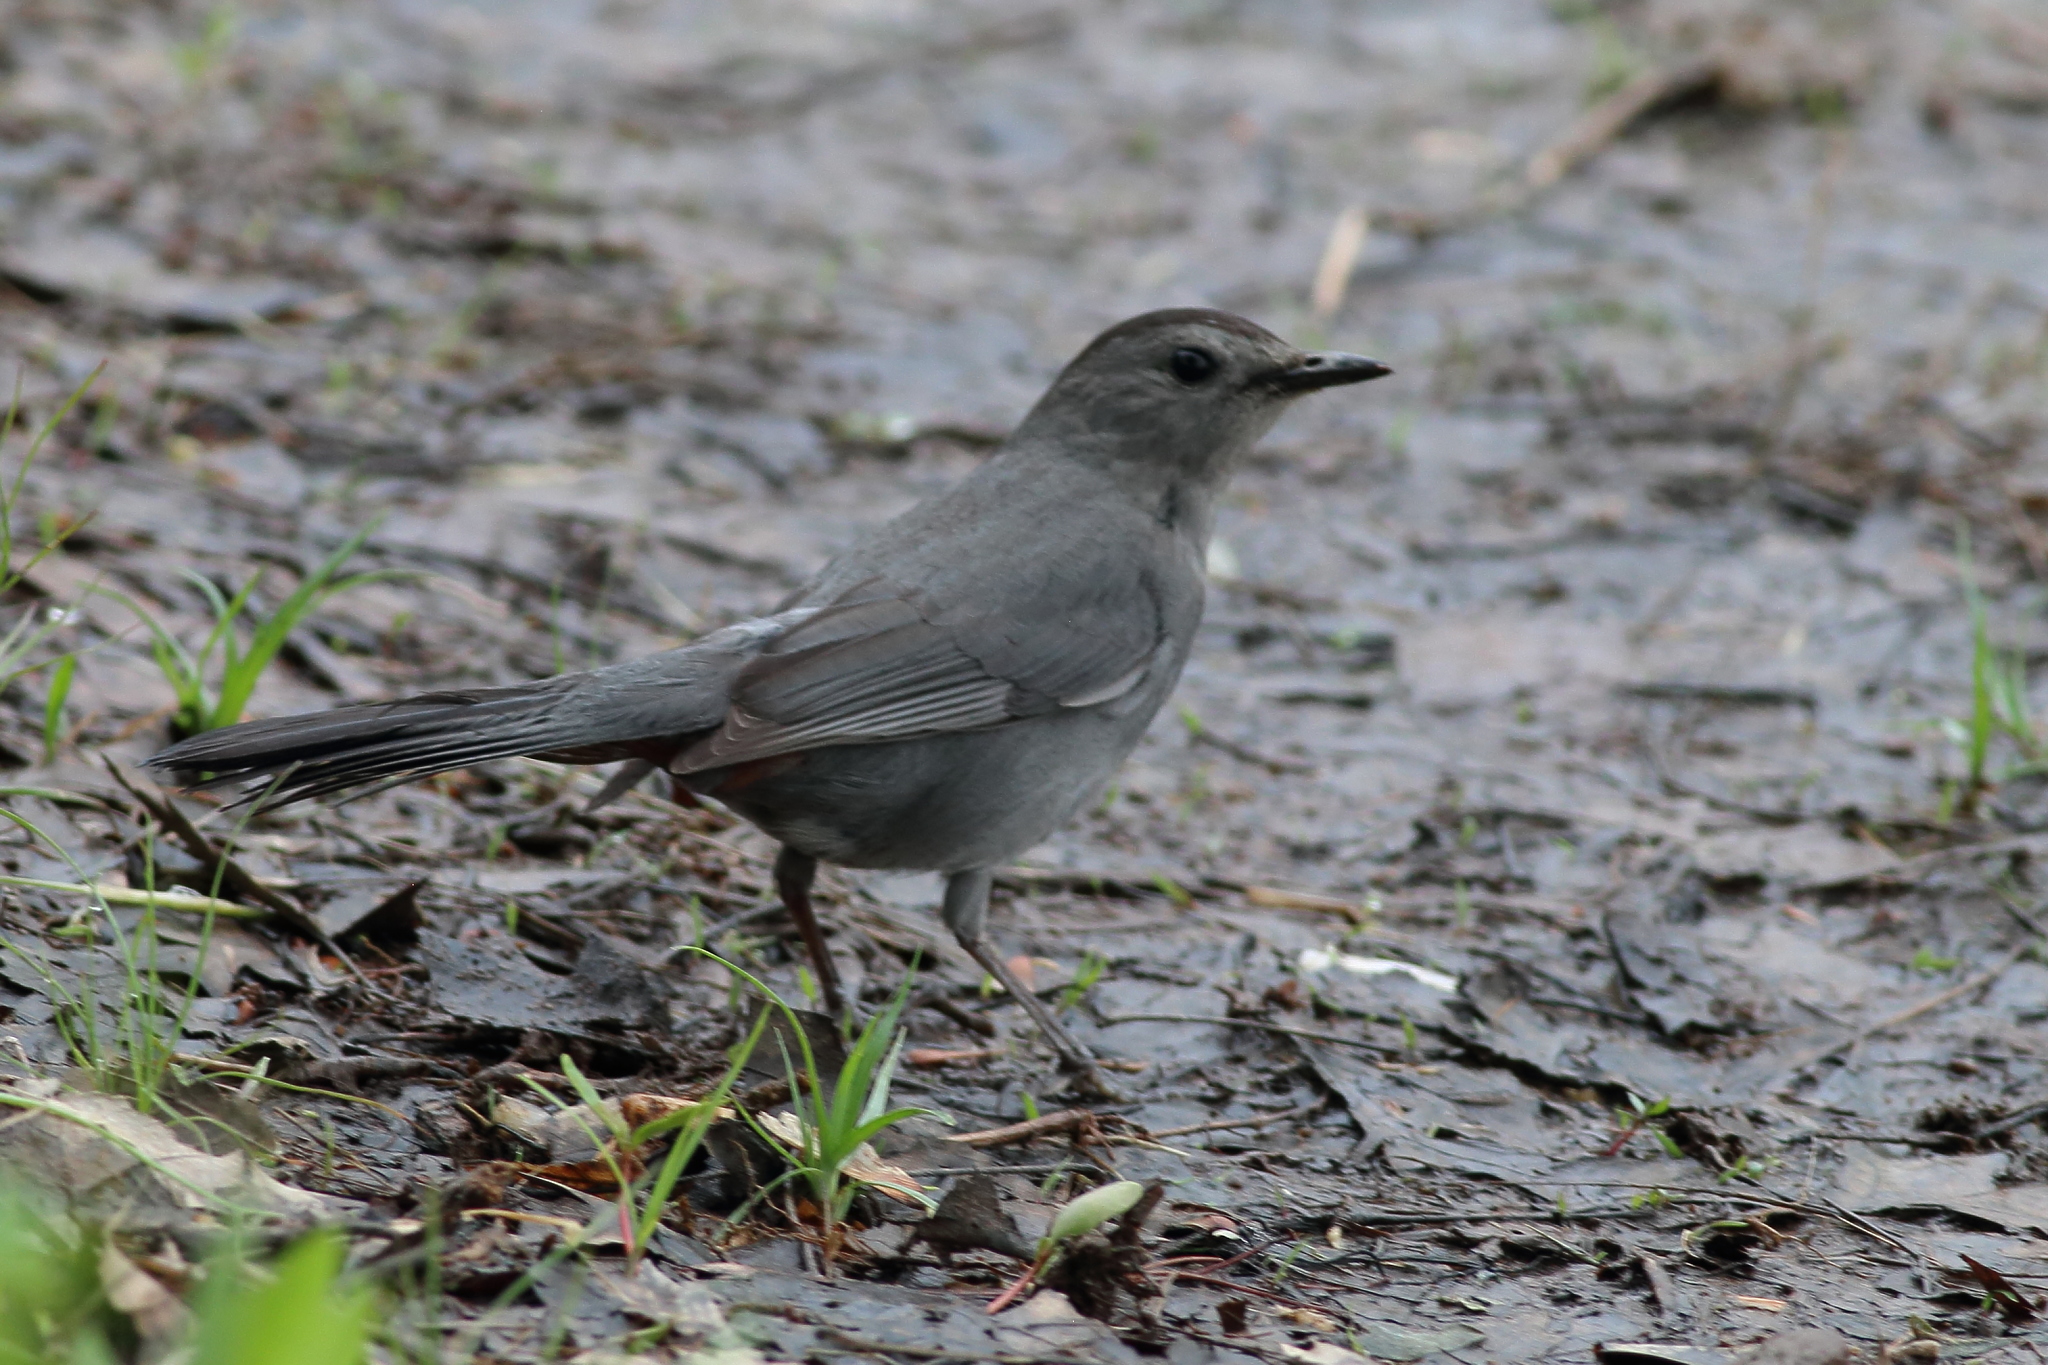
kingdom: Animalia
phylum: Chordata
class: Aves
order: Passeriformes
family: Mimidae
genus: Dumetella
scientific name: Dumetella carolinensis
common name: Gray catbird
